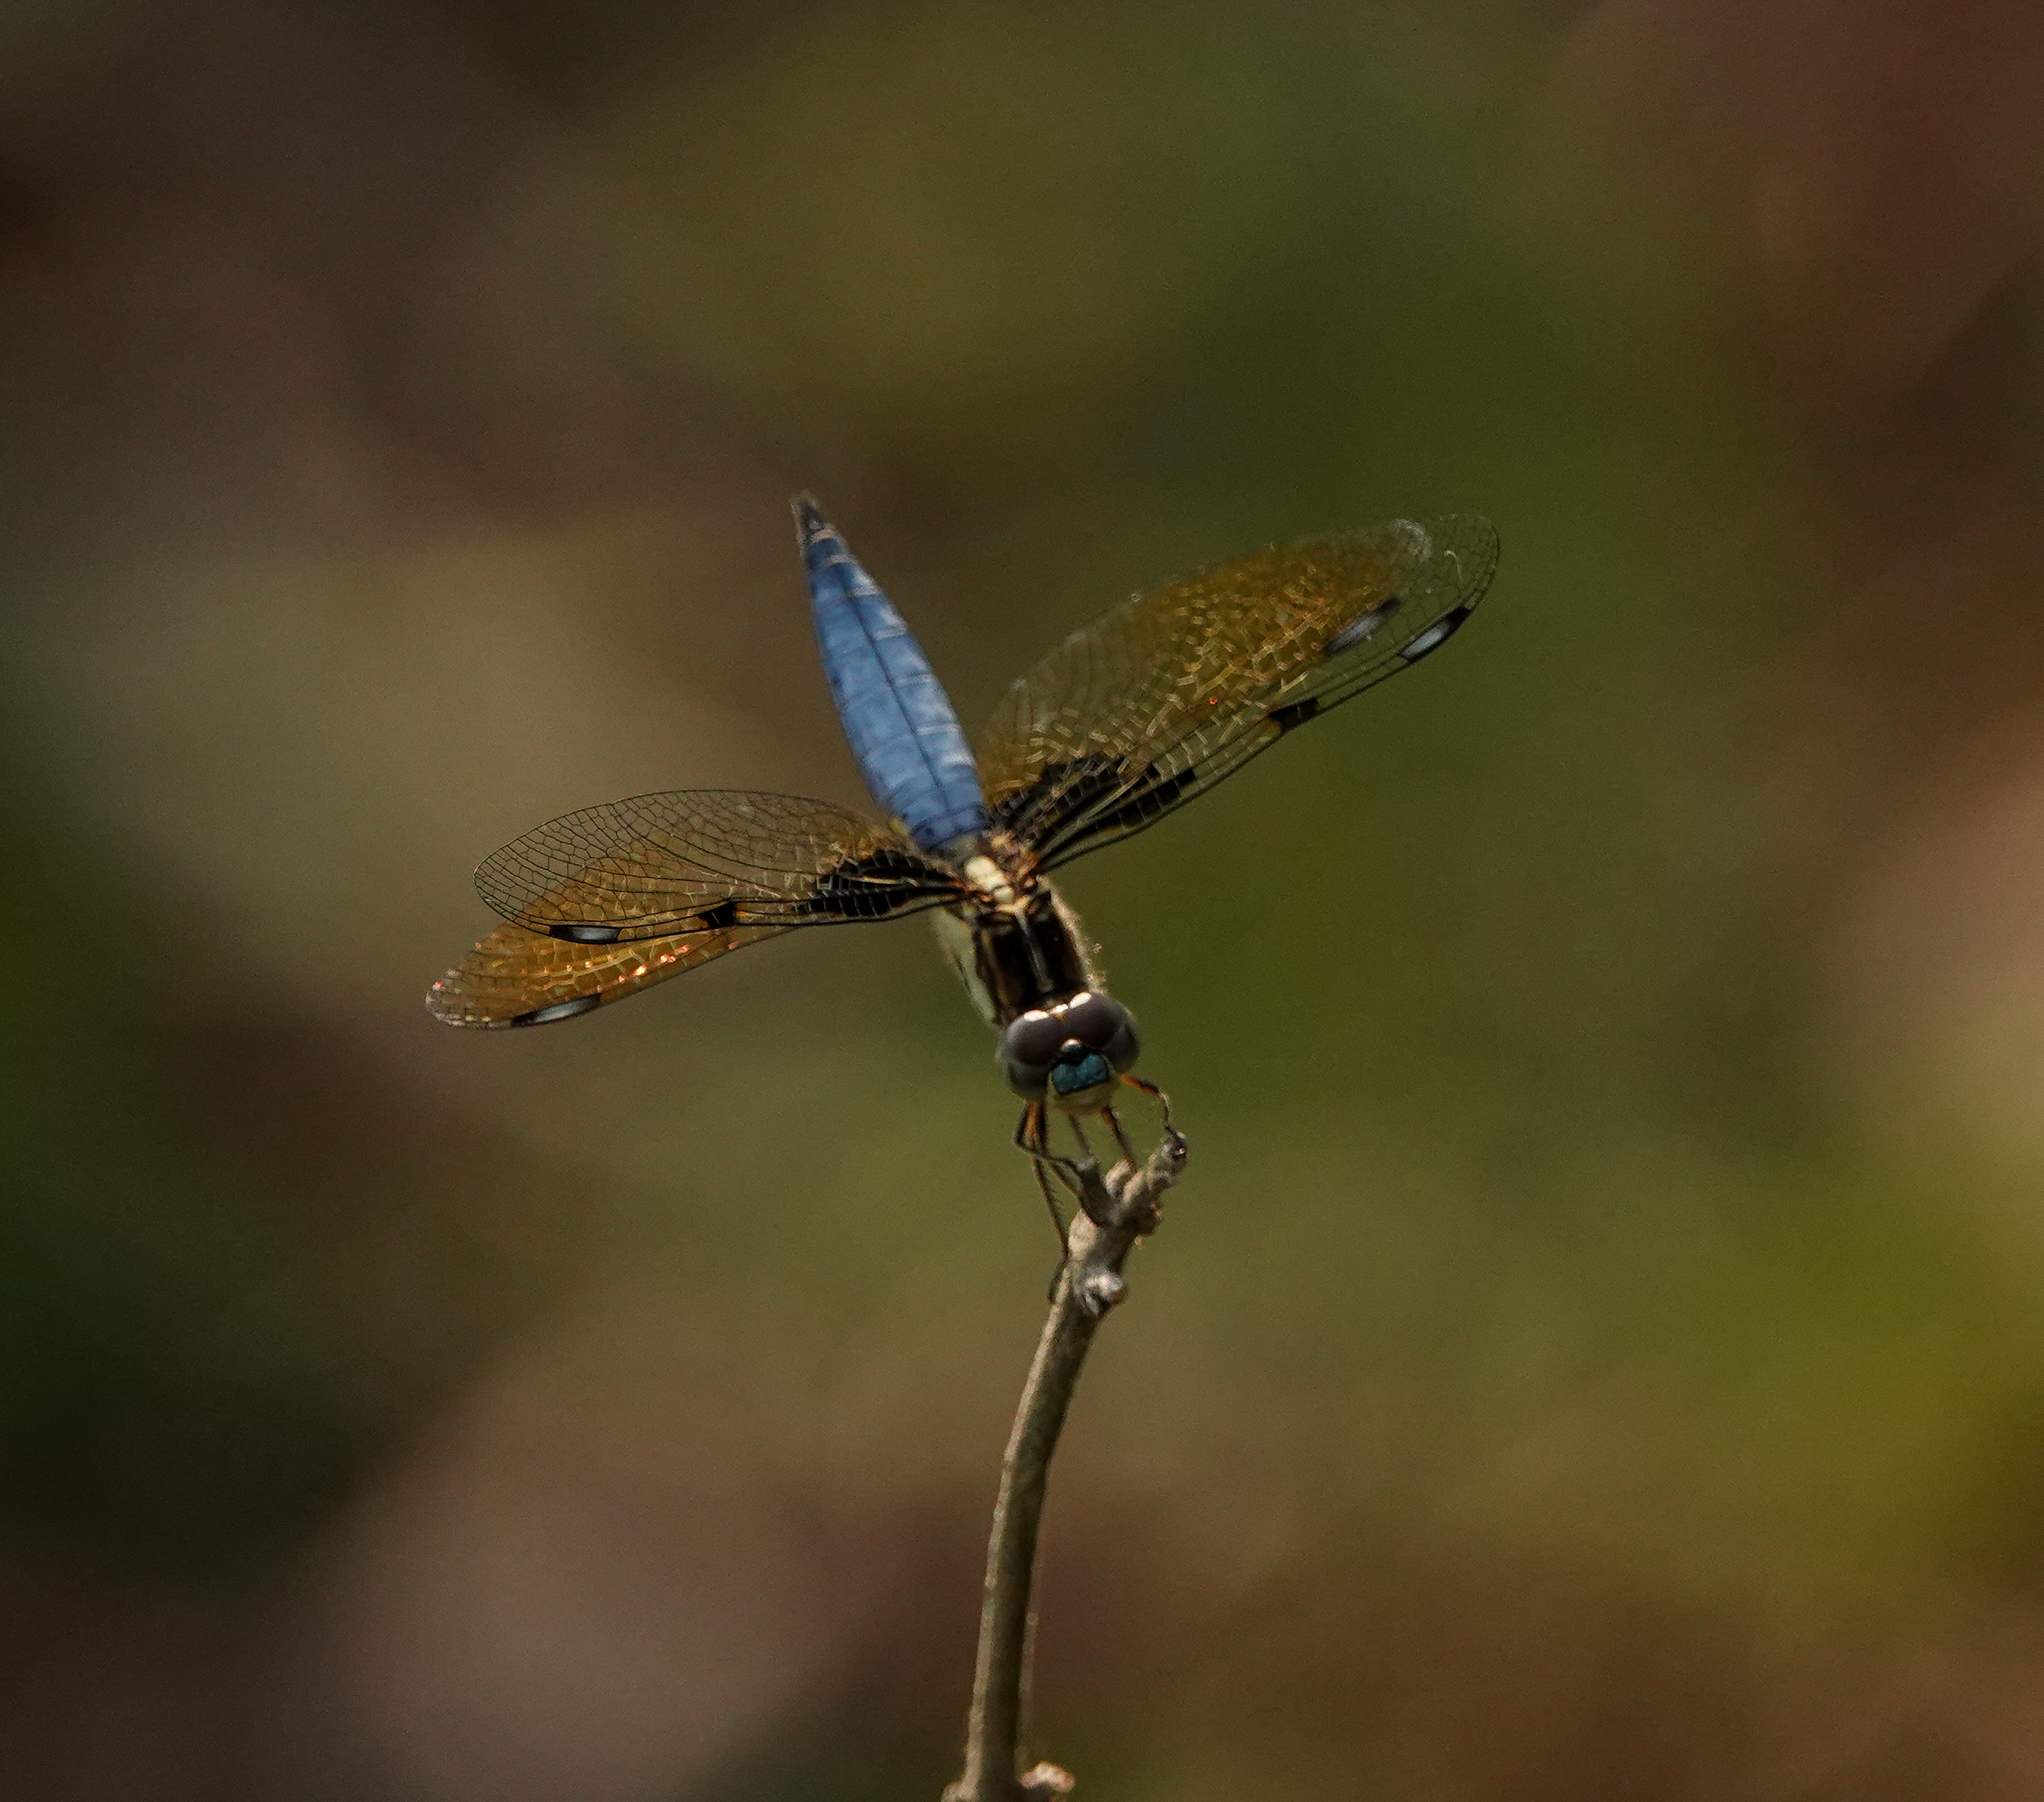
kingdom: Animalia
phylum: Arthropoda
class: Insecta
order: Odonata
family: Libellulidae
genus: Palpopleura
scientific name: Palpopleura sexmaculata
